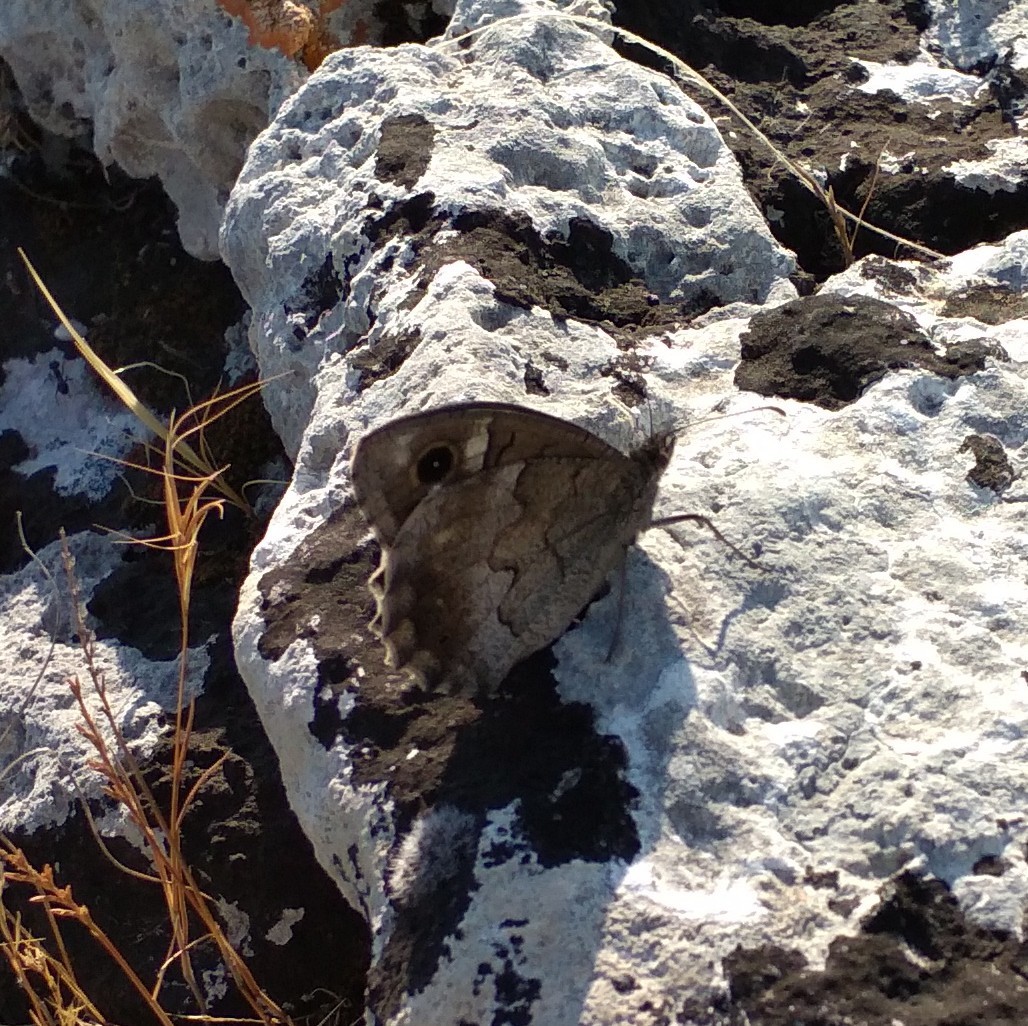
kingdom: Animalia
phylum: Arthropoda
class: Insecta
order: Lepidoptera
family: Nymphalidae
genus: Hipparchia
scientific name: Hipparchia statilinus
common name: Tree grayling
